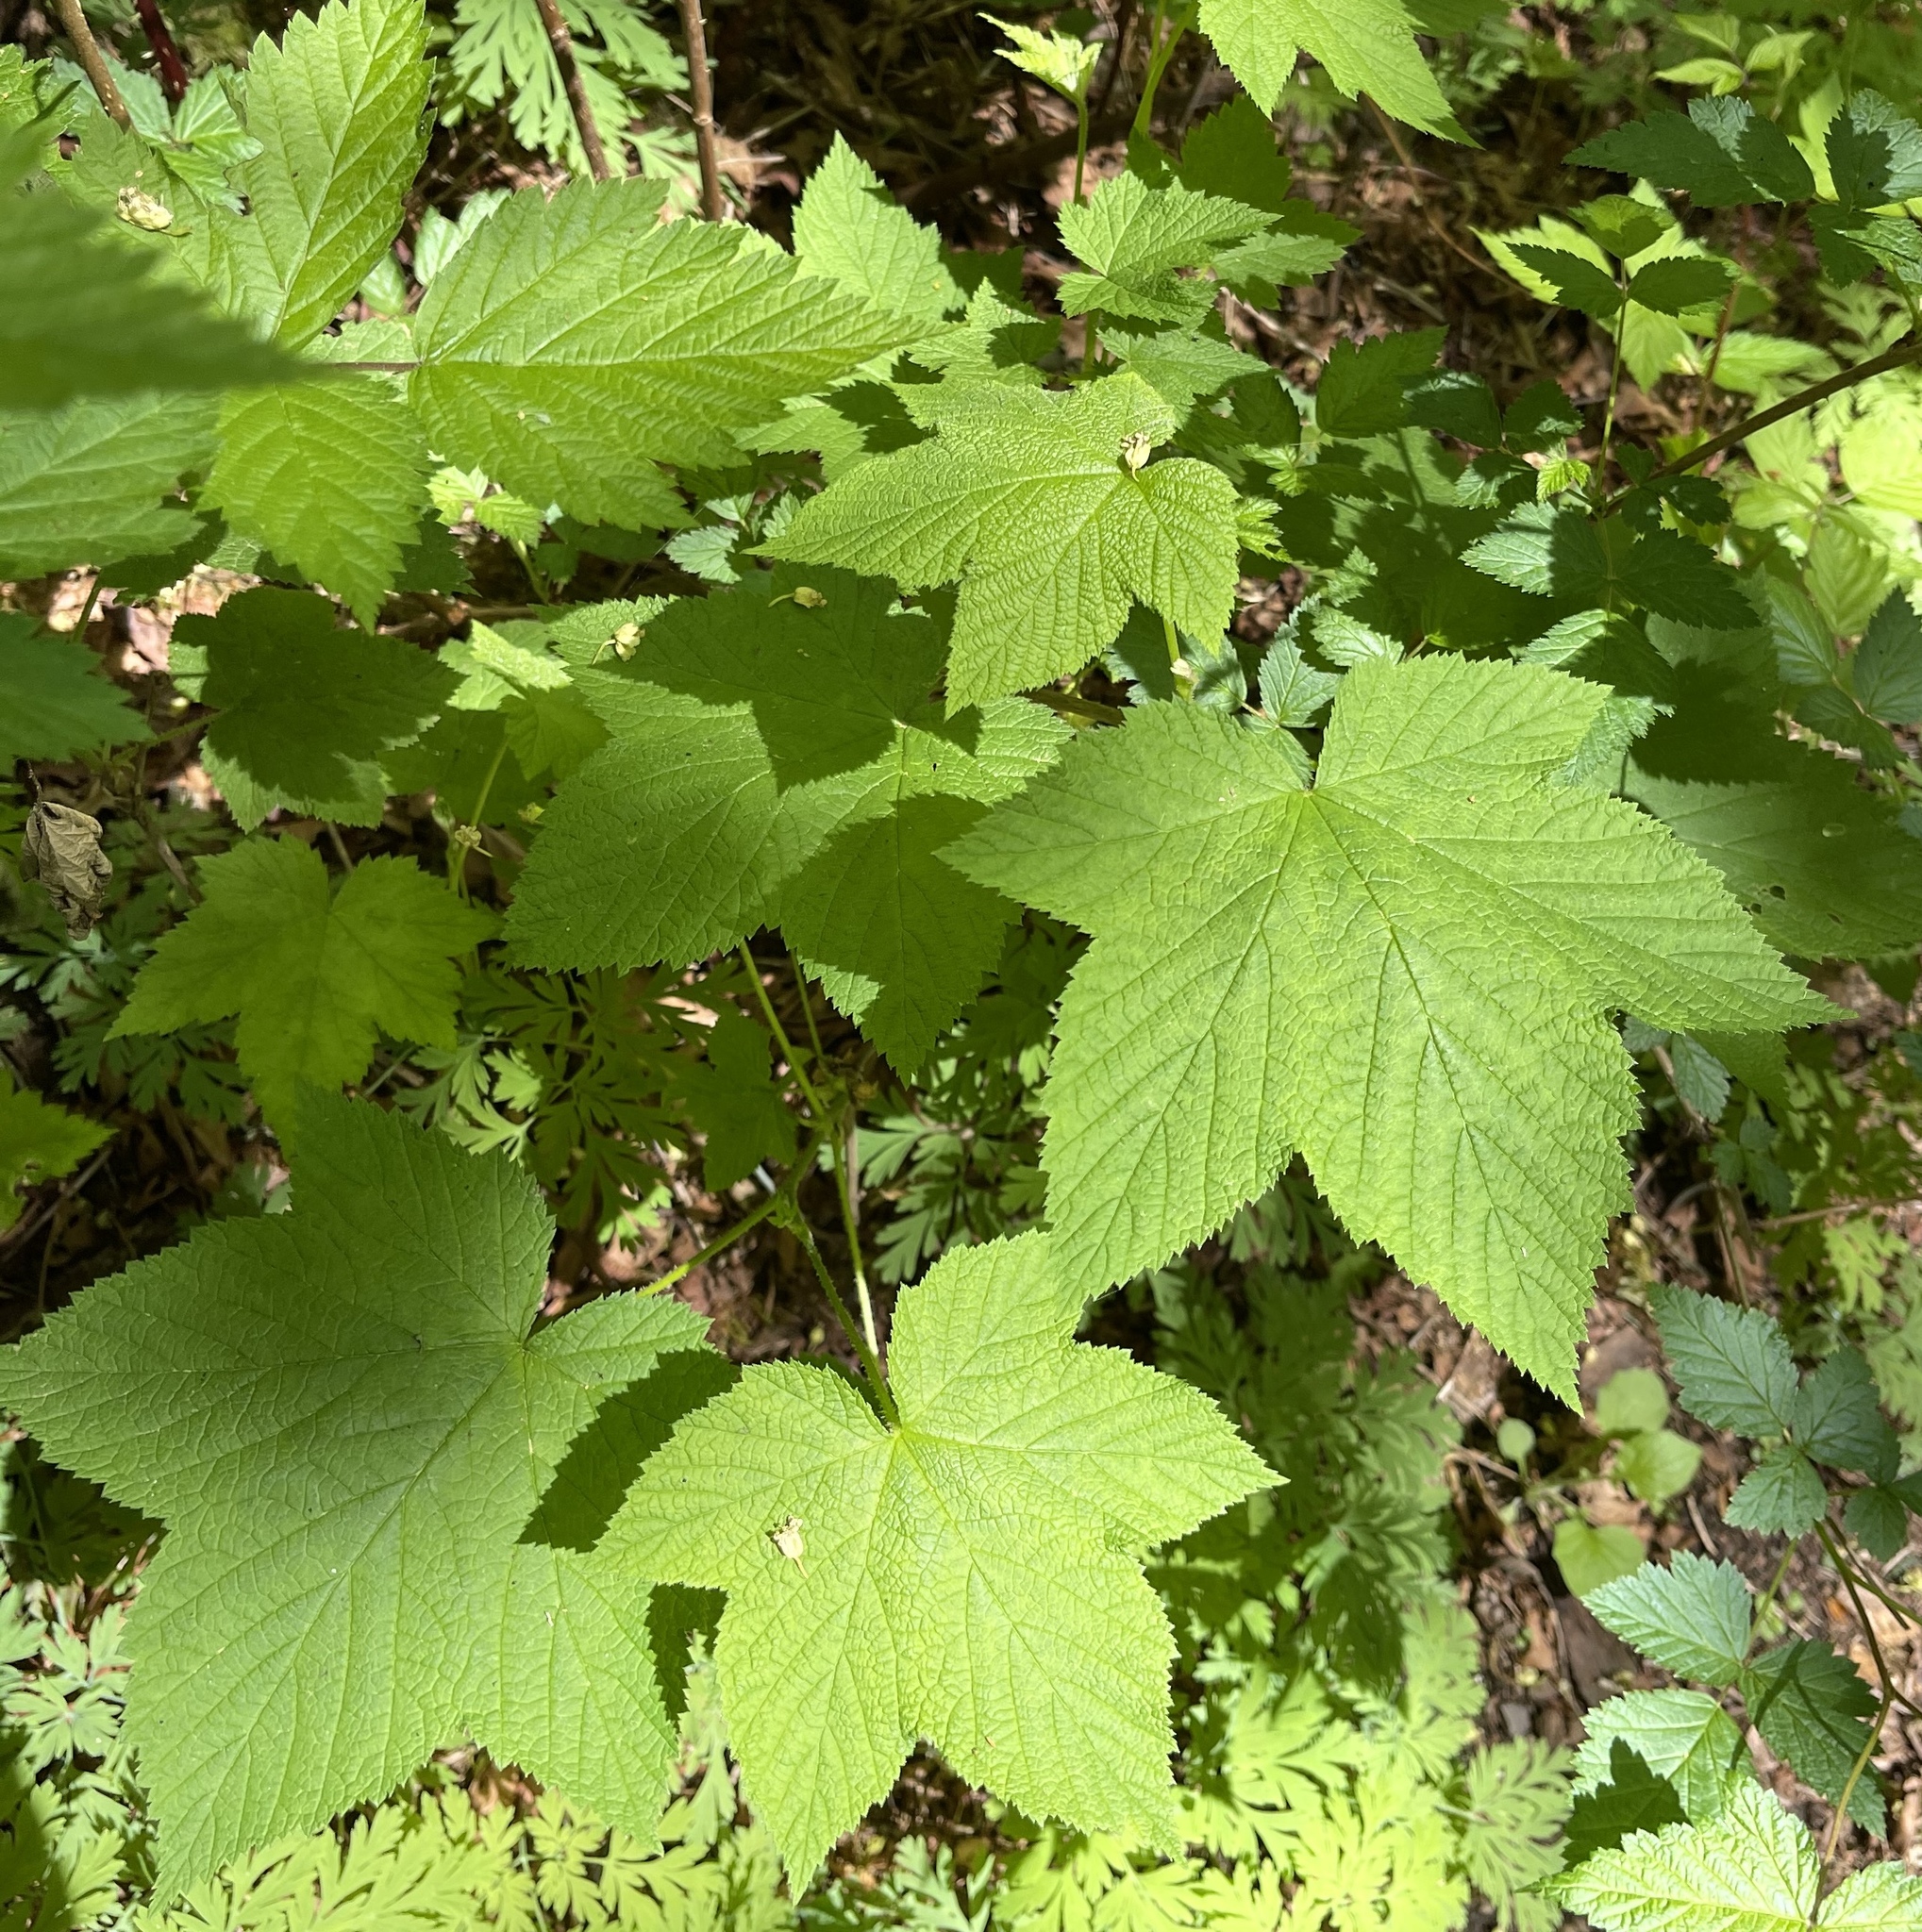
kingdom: Plantae
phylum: Tracheophyta
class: Magnoliopsida
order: Rosales
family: Rosaceae
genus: Rubus
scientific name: Rubus parviflorus
